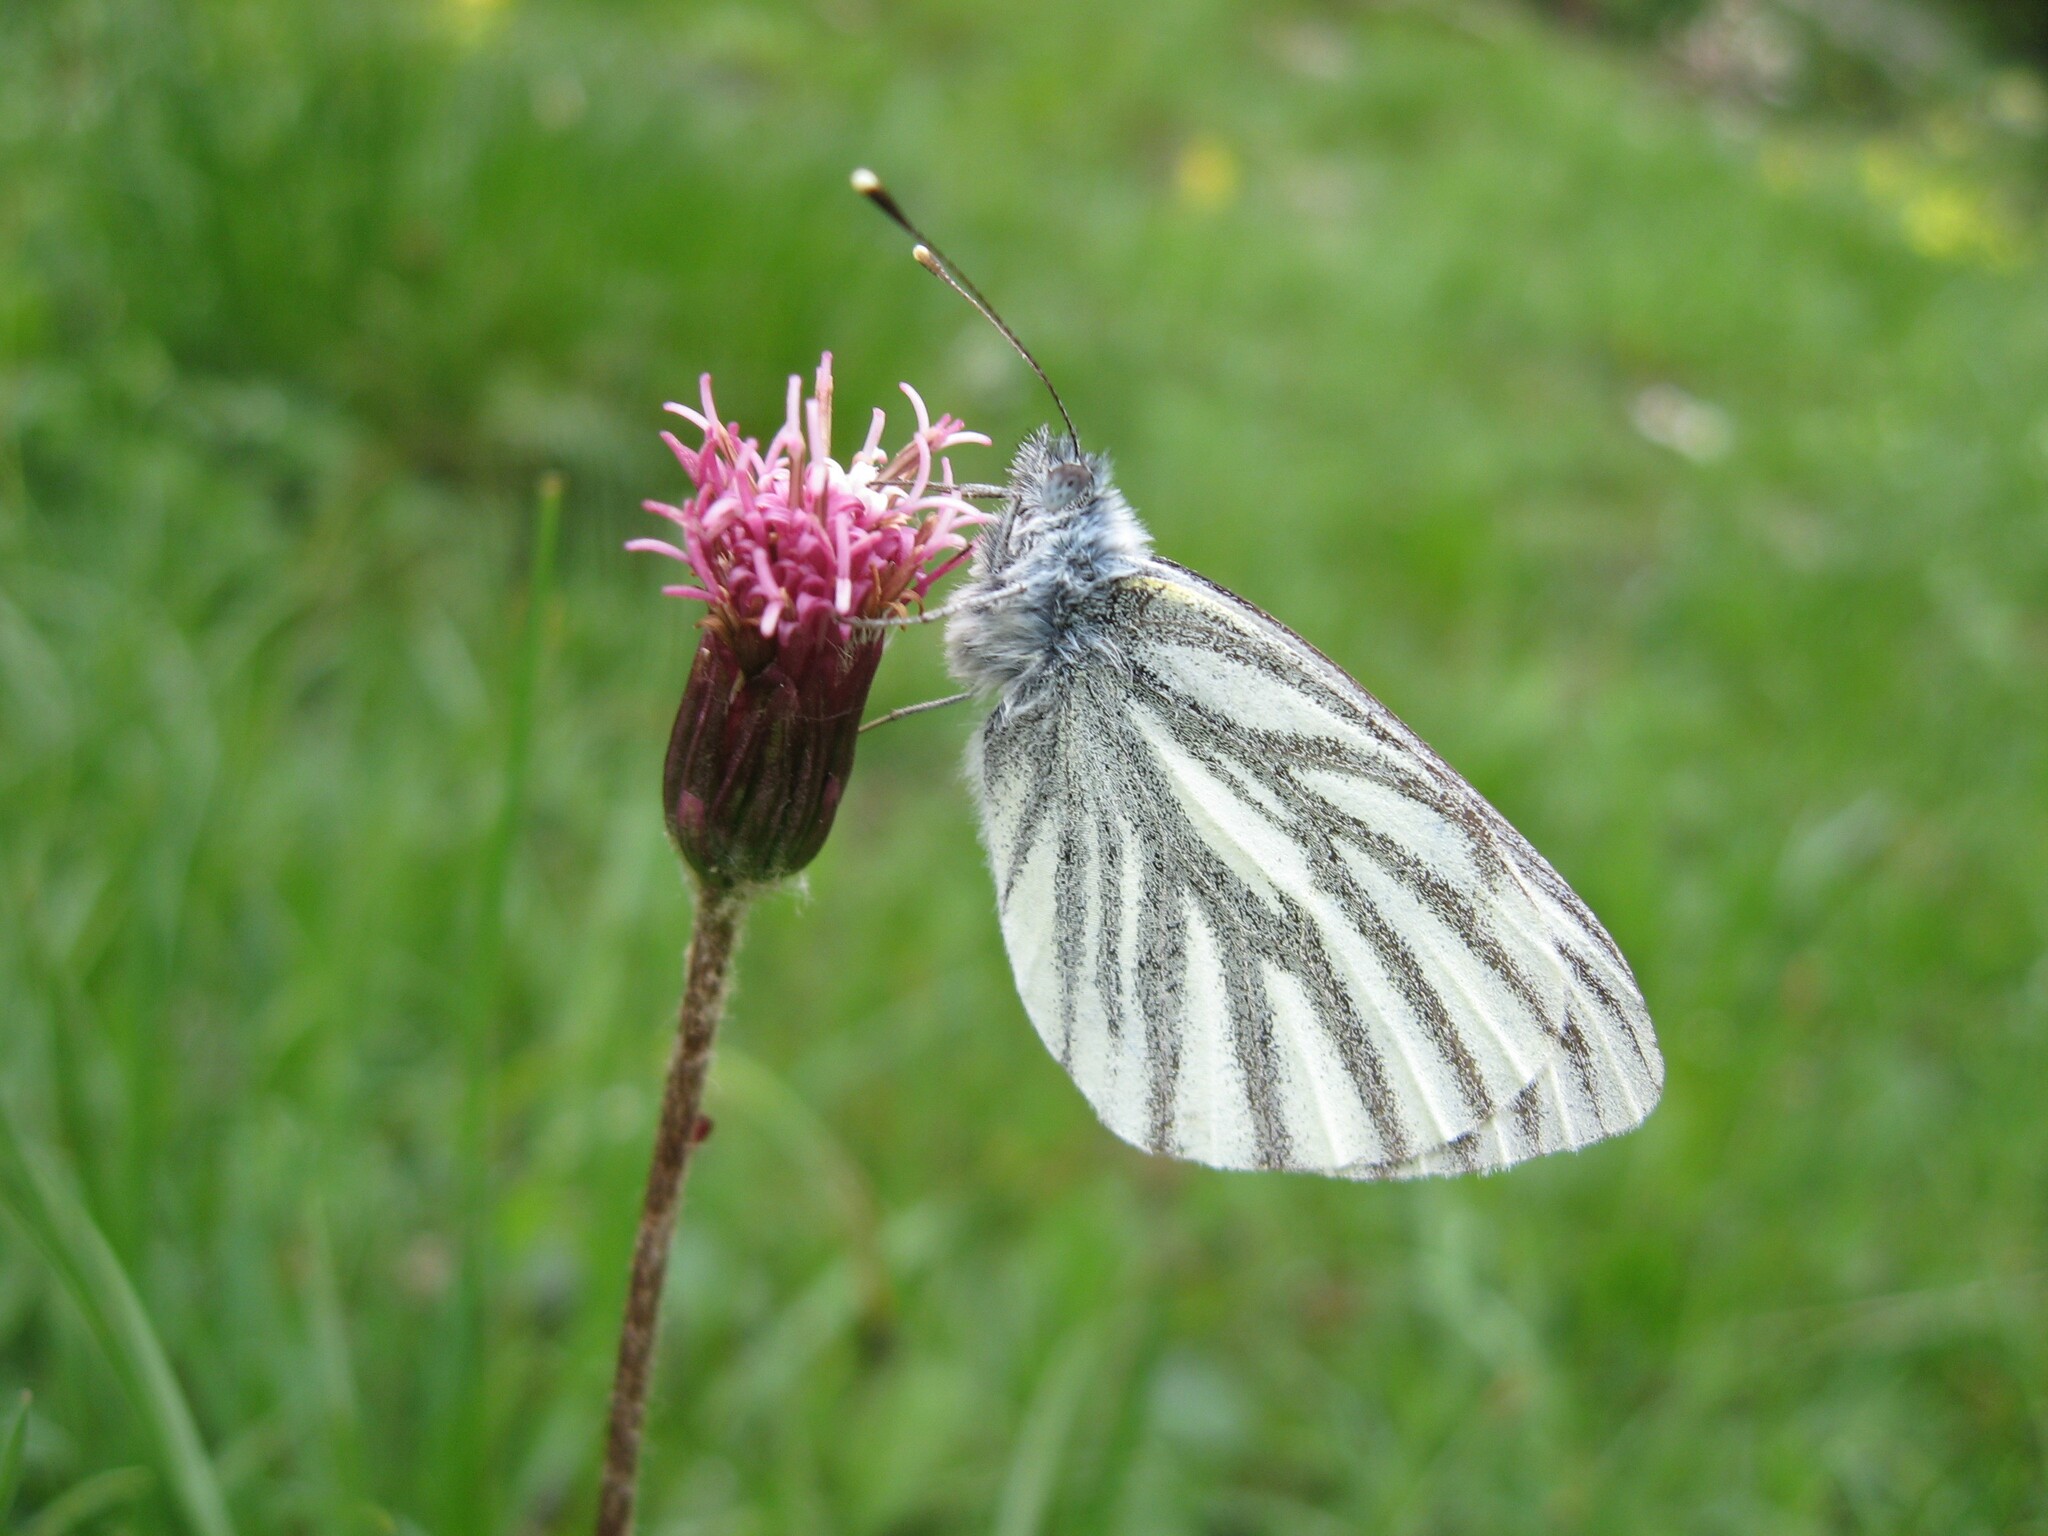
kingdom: Animalia
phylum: Arthropoda
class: Insecta
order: Lepidoptera
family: Pieridae
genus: Pieris
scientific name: Pieris bryoniae
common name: Mountain green-veined white
